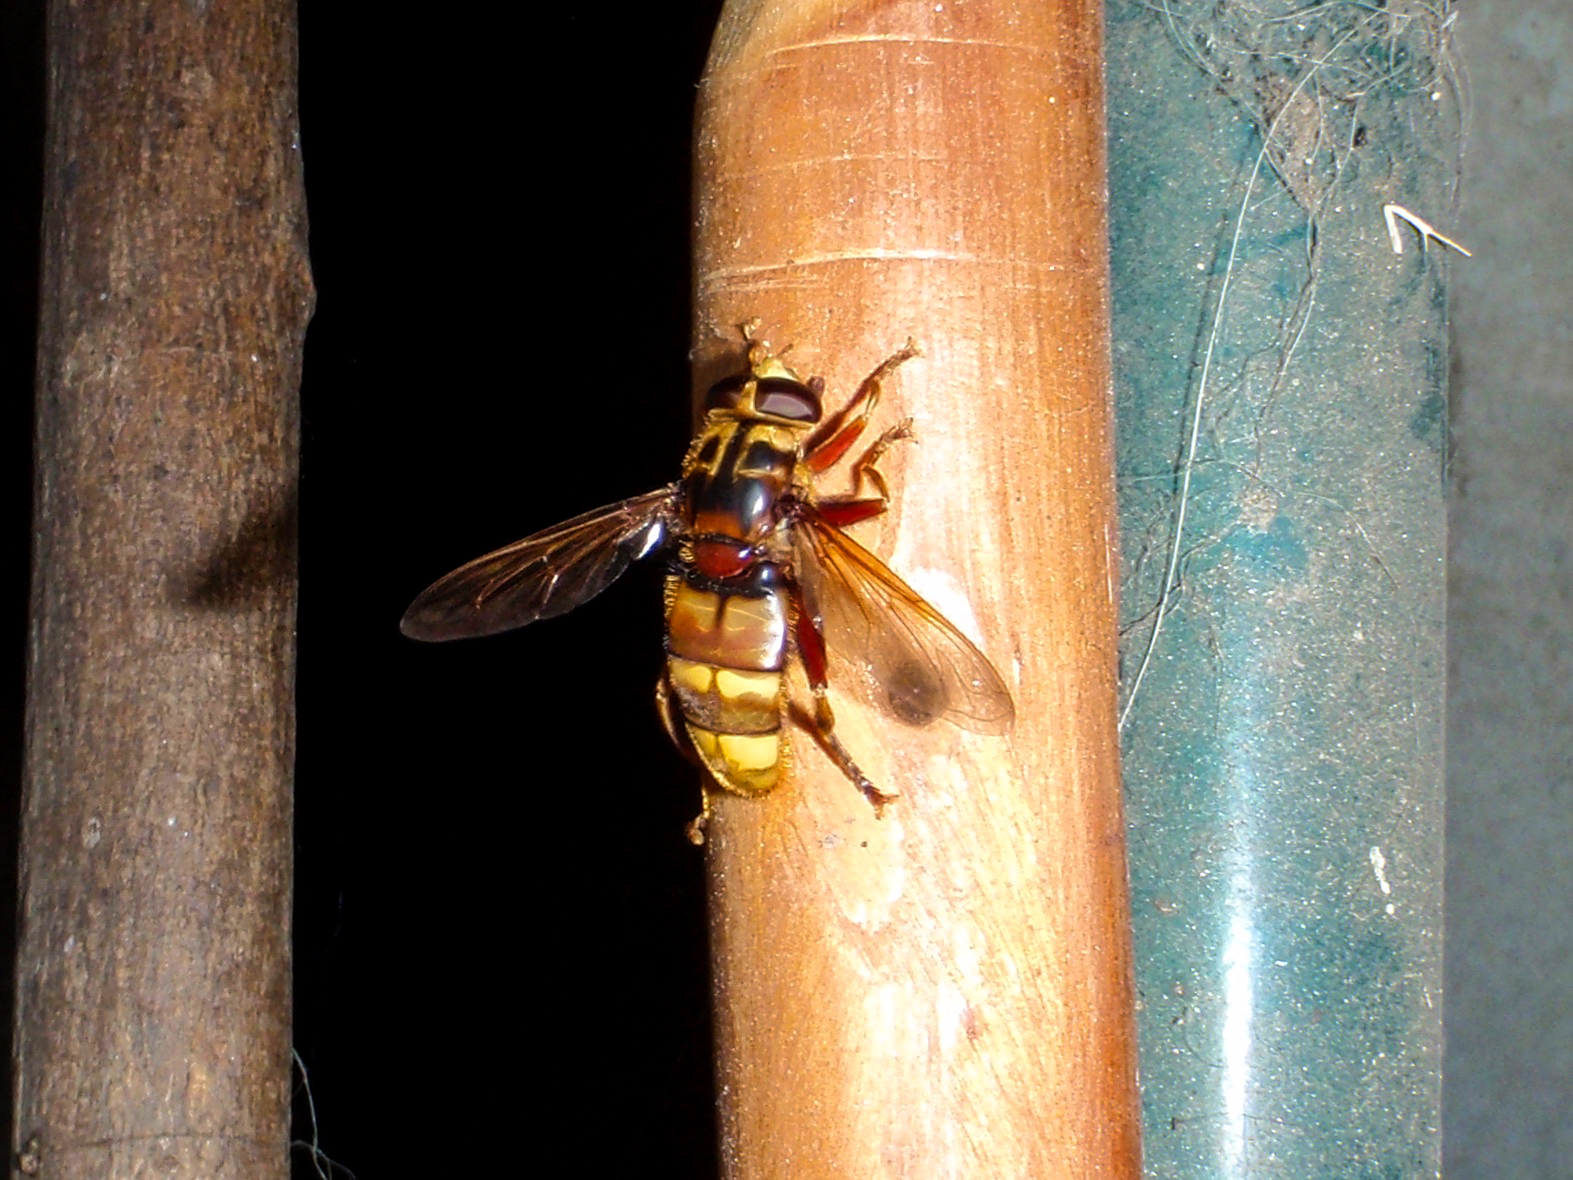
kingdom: Animalia
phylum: Arthropoda
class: Insecta
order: Diptera
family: Syrphidae
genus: Milesia
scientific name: Milesia crabroniformis
